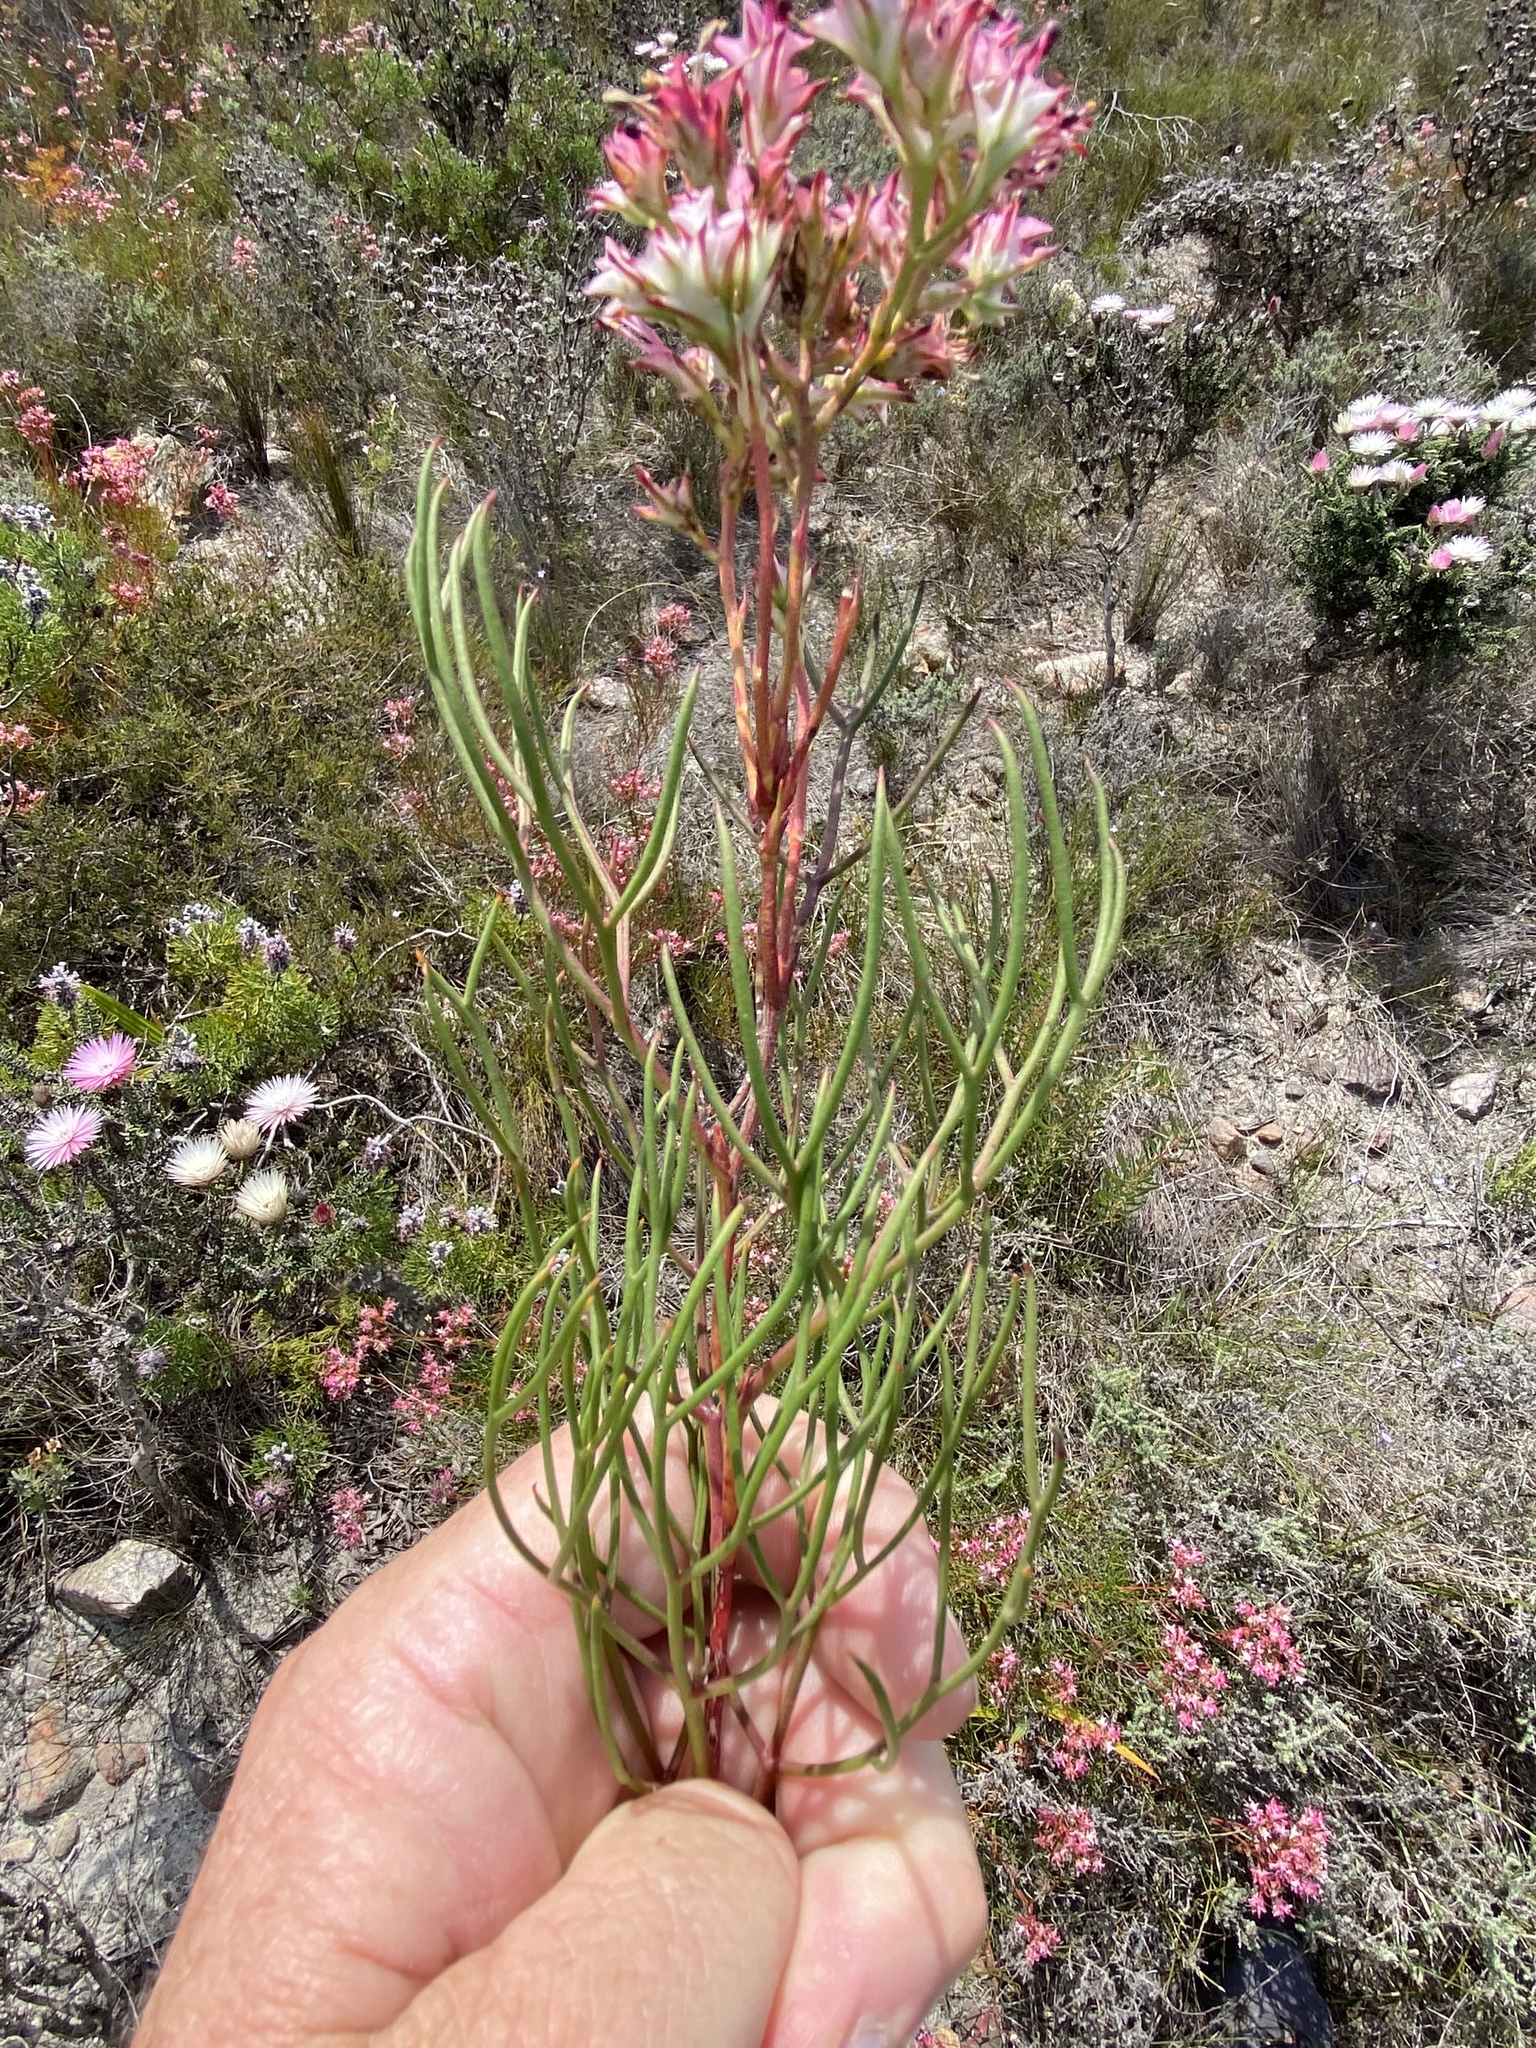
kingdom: Plantae
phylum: Tracheophyta
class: Magnoliopsida
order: Proteales
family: Proteaceae
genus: Serruria
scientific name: Serruria meisneriana
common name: Dainty spiderhead
